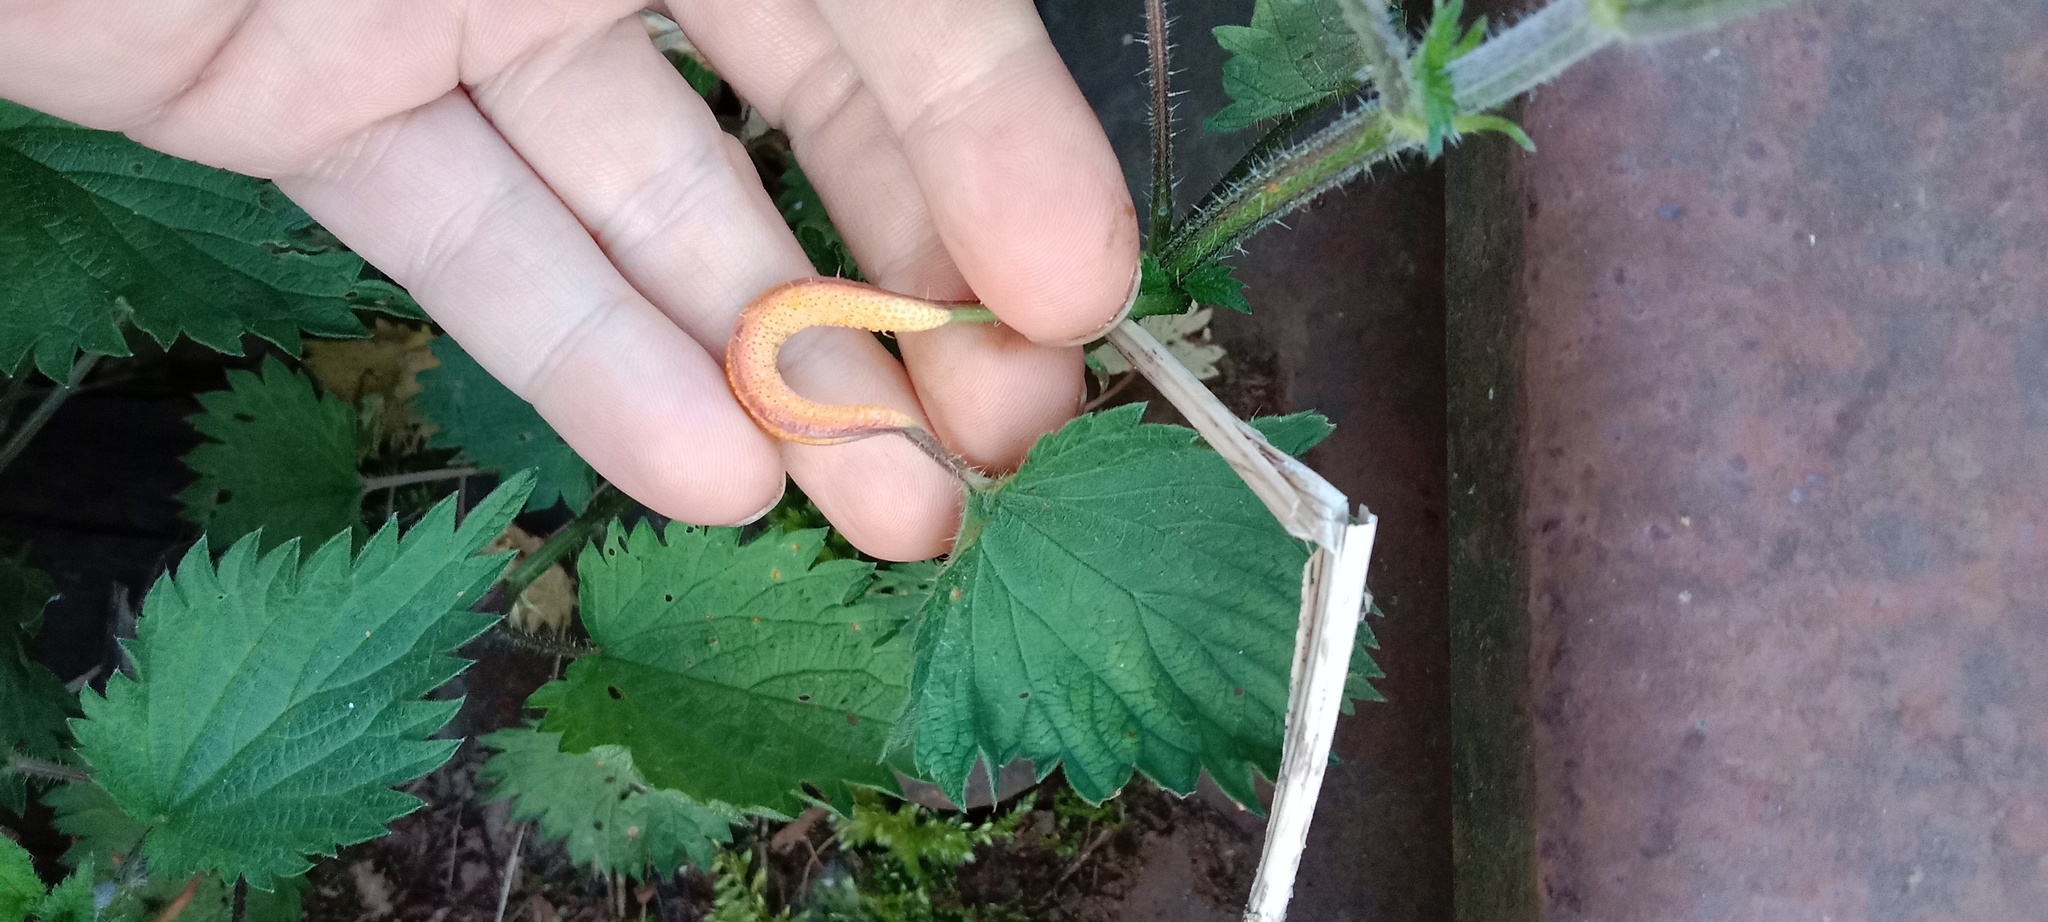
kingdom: Fungi
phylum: Basidiomycota
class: Pucciniomycetes
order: Pucciniales
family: Pucciniaceae
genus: Puccinia
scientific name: Puccinia urticata
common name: Nettle clustercup rust fungus
